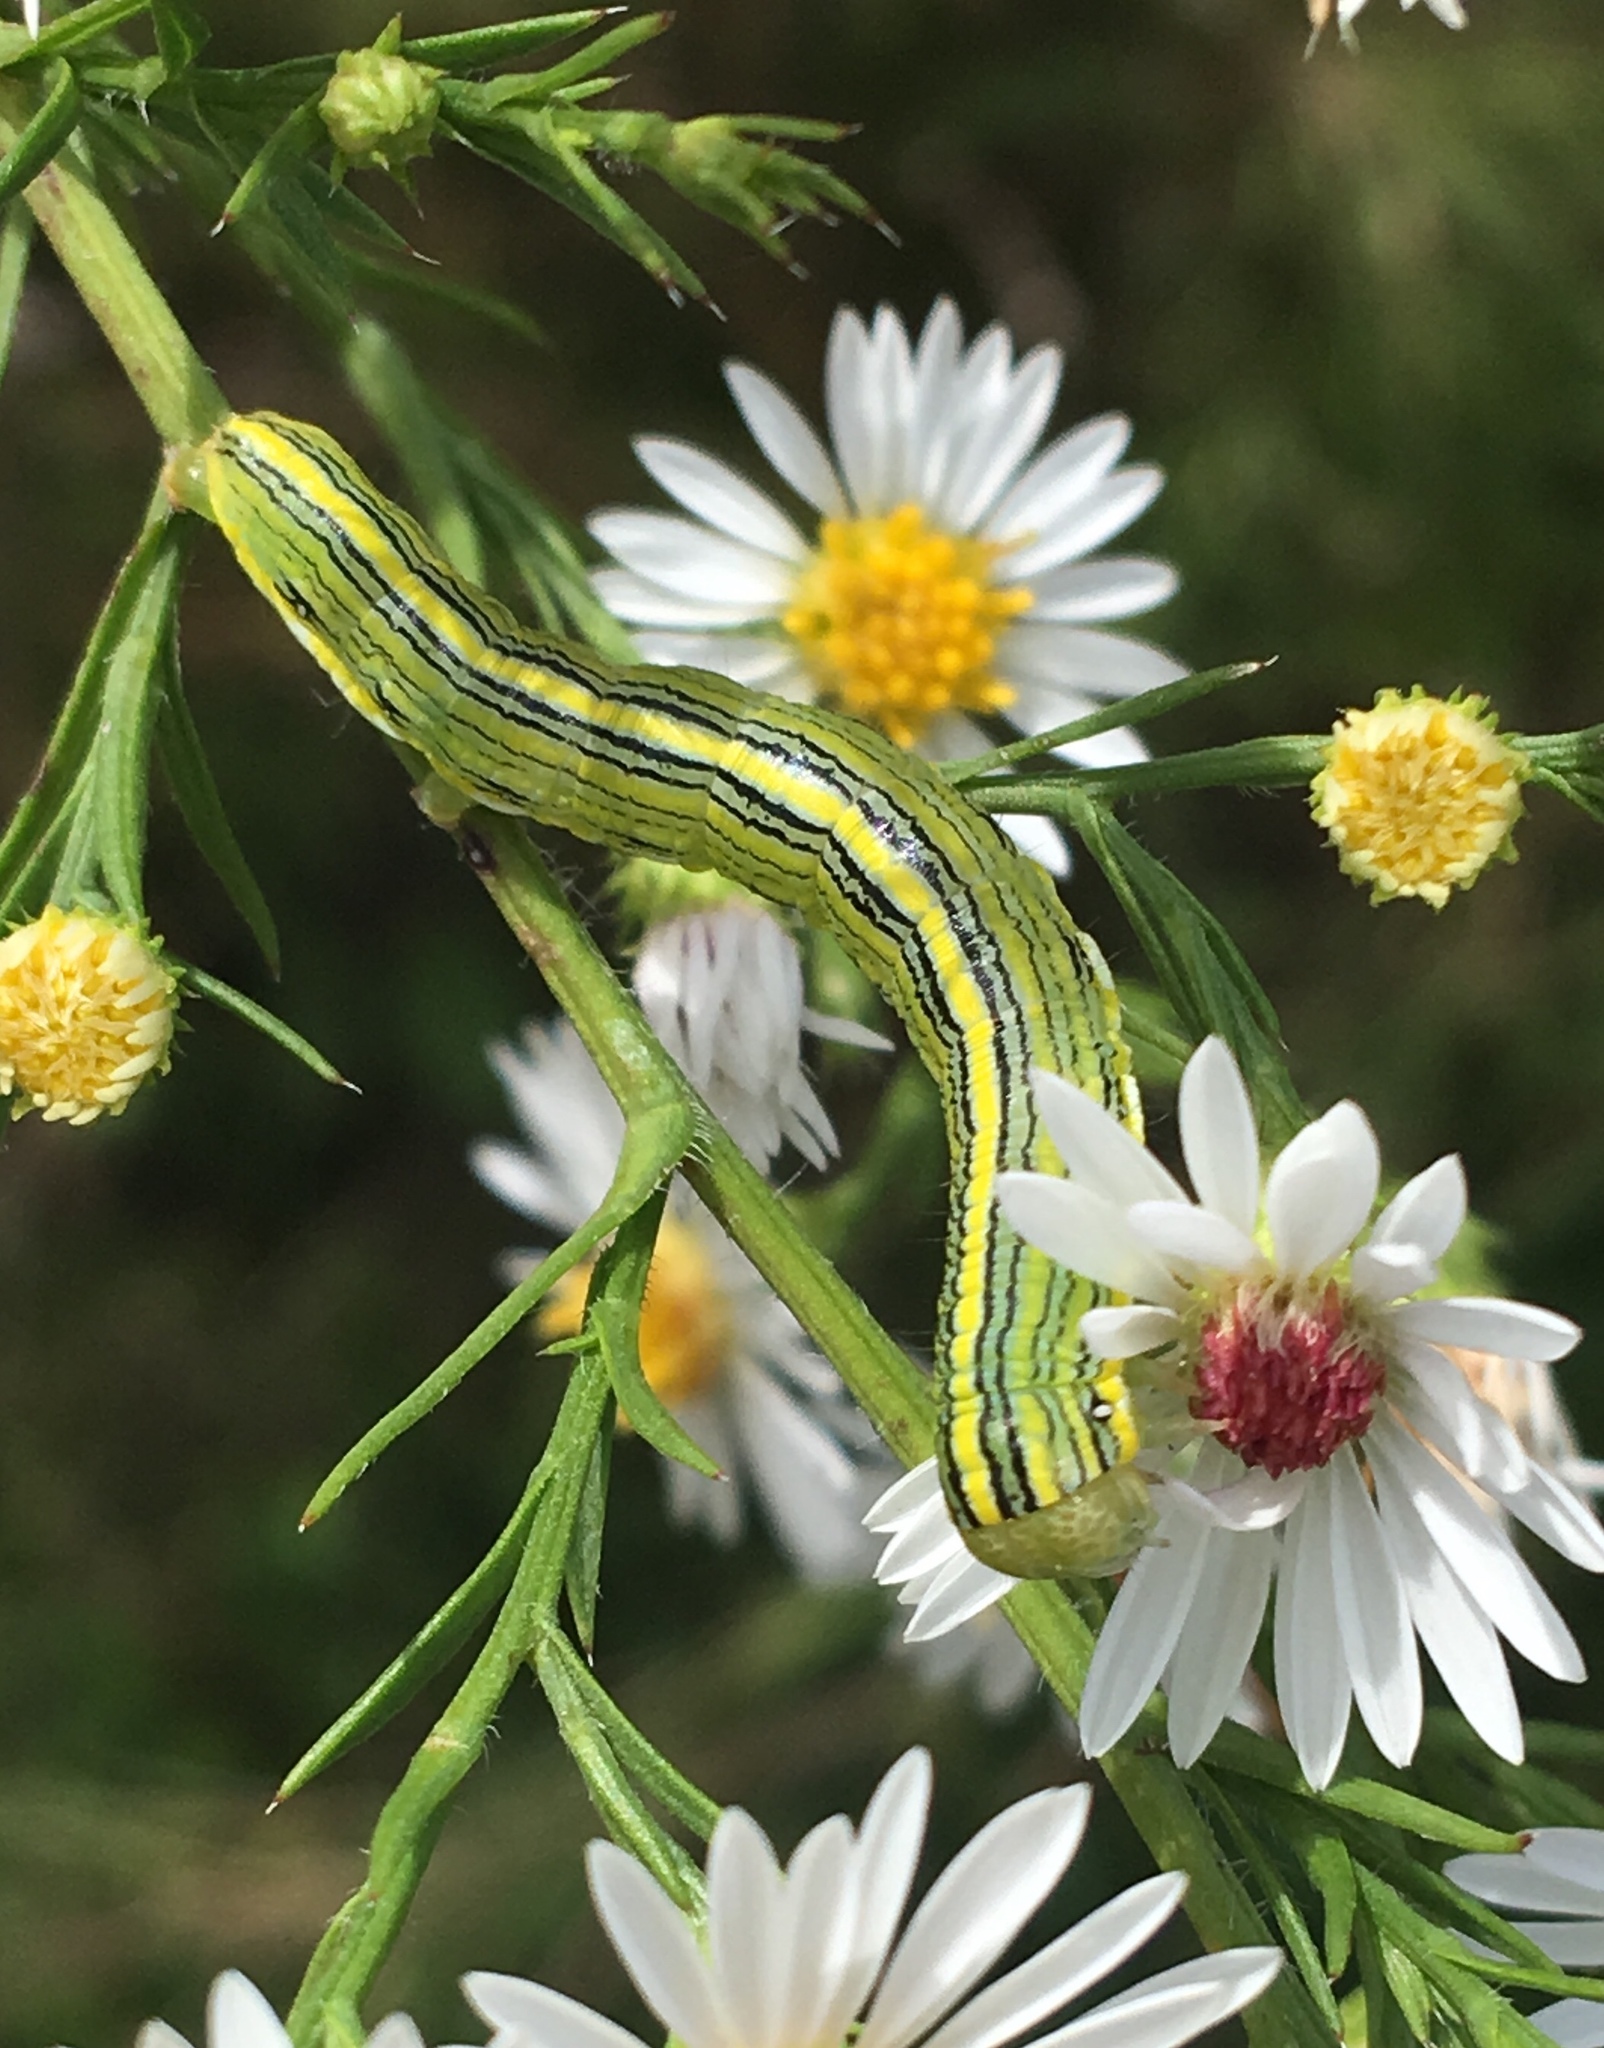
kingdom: Animalia
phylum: Arthropoda
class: Insecta
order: Lepidoptera
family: Noctuidae
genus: Cucullia
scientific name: Cucullia asteroides
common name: Asteroid moth
